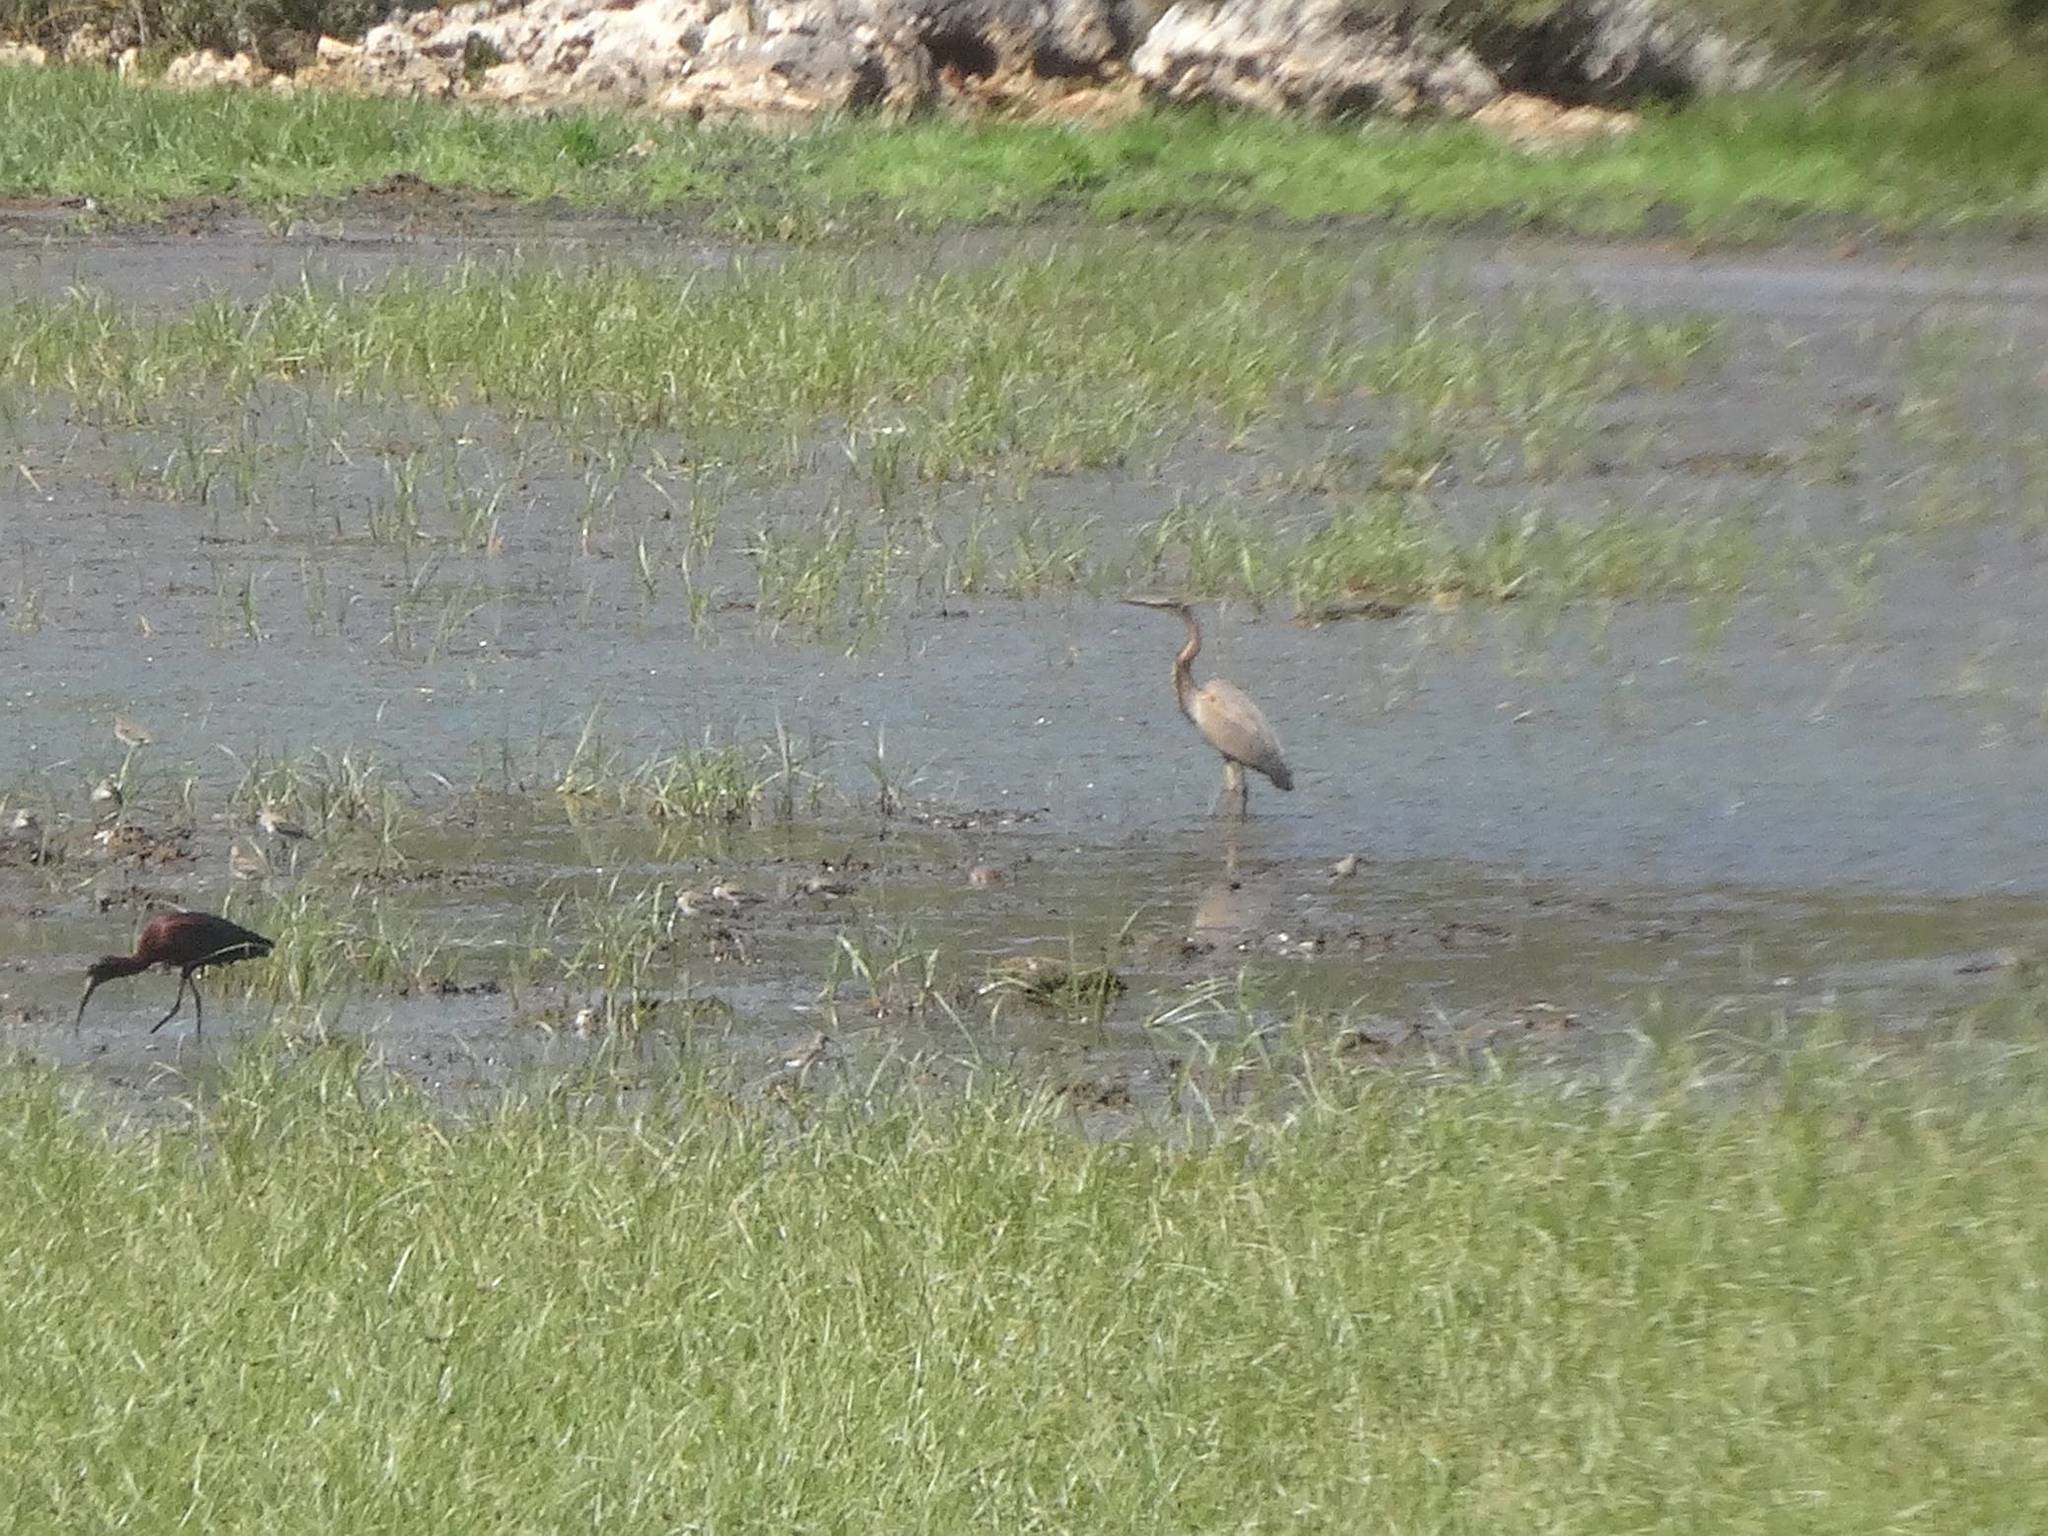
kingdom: Animalia
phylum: Chordata
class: Aves
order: Pelecaniformes
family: Ardeidae
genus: Ardea
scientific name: Ardea purpurea
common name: Purple heron
